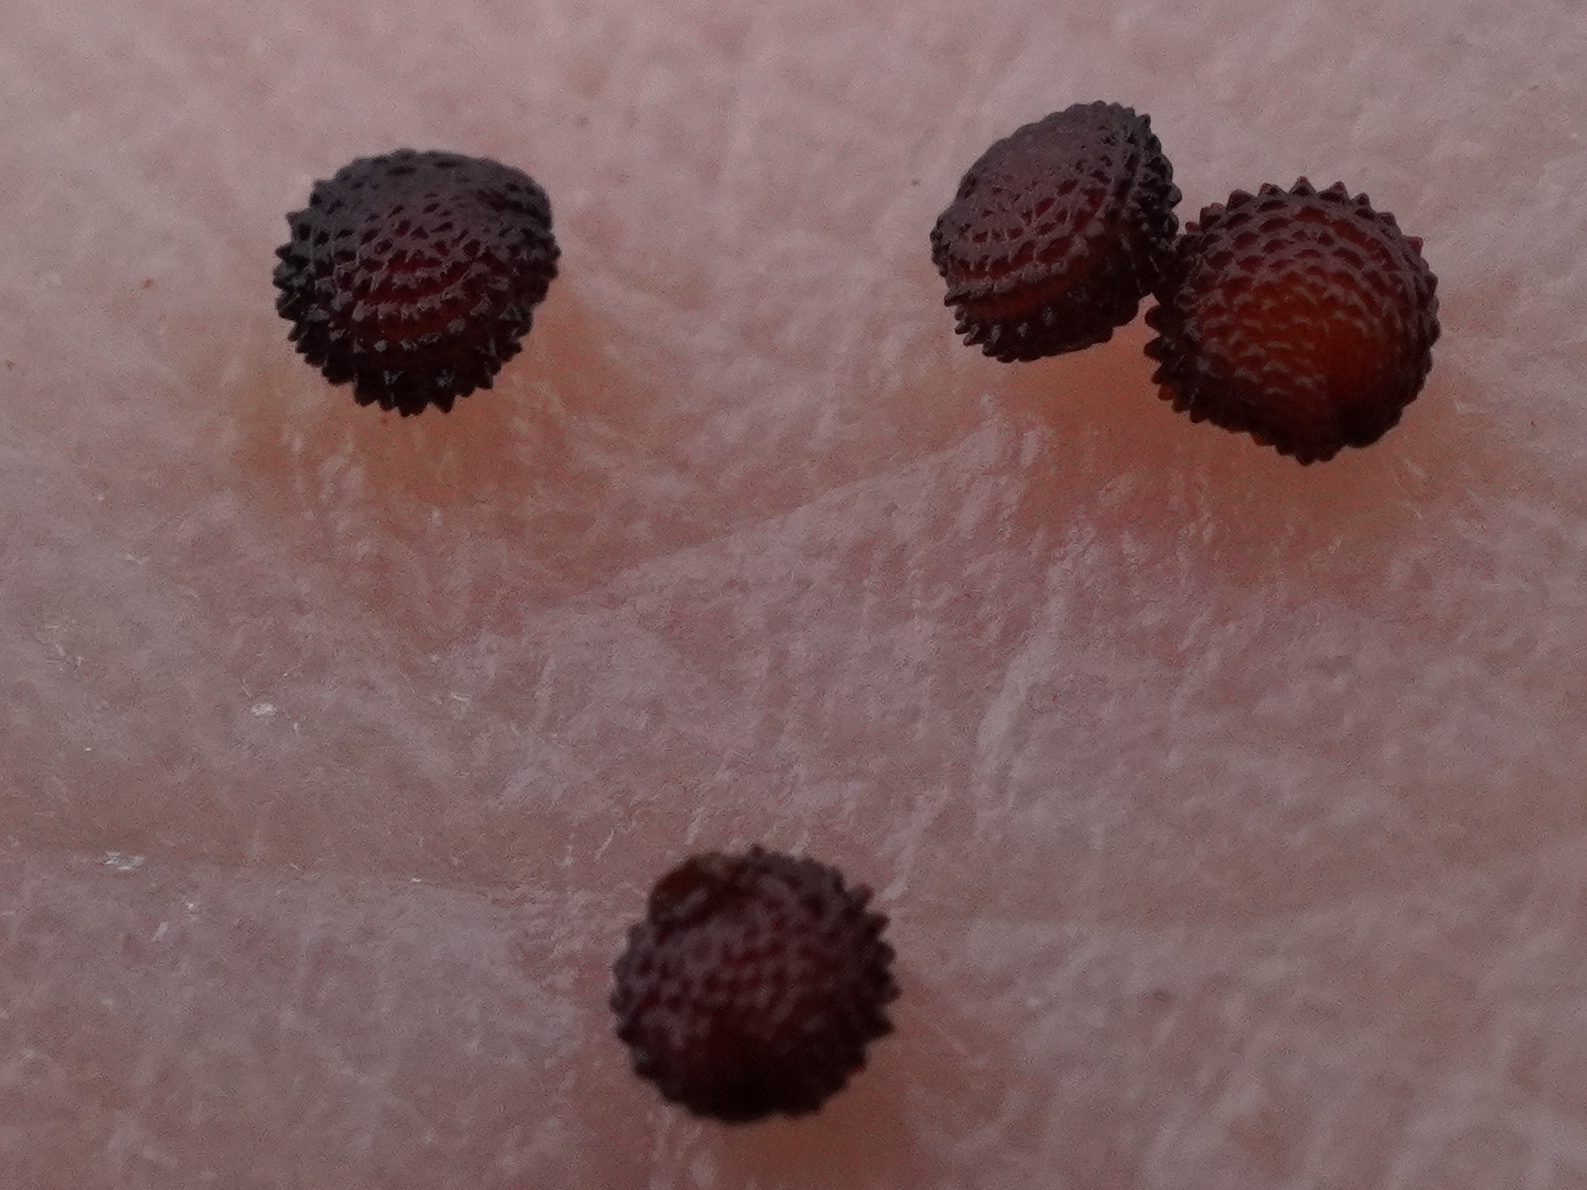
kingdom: Plantae
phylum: Tracheophyta
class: Magnoliopsida
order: Caryophyllales
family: Caryophyllaceae
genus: Stellaria
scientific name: Stellaria ruderalis
